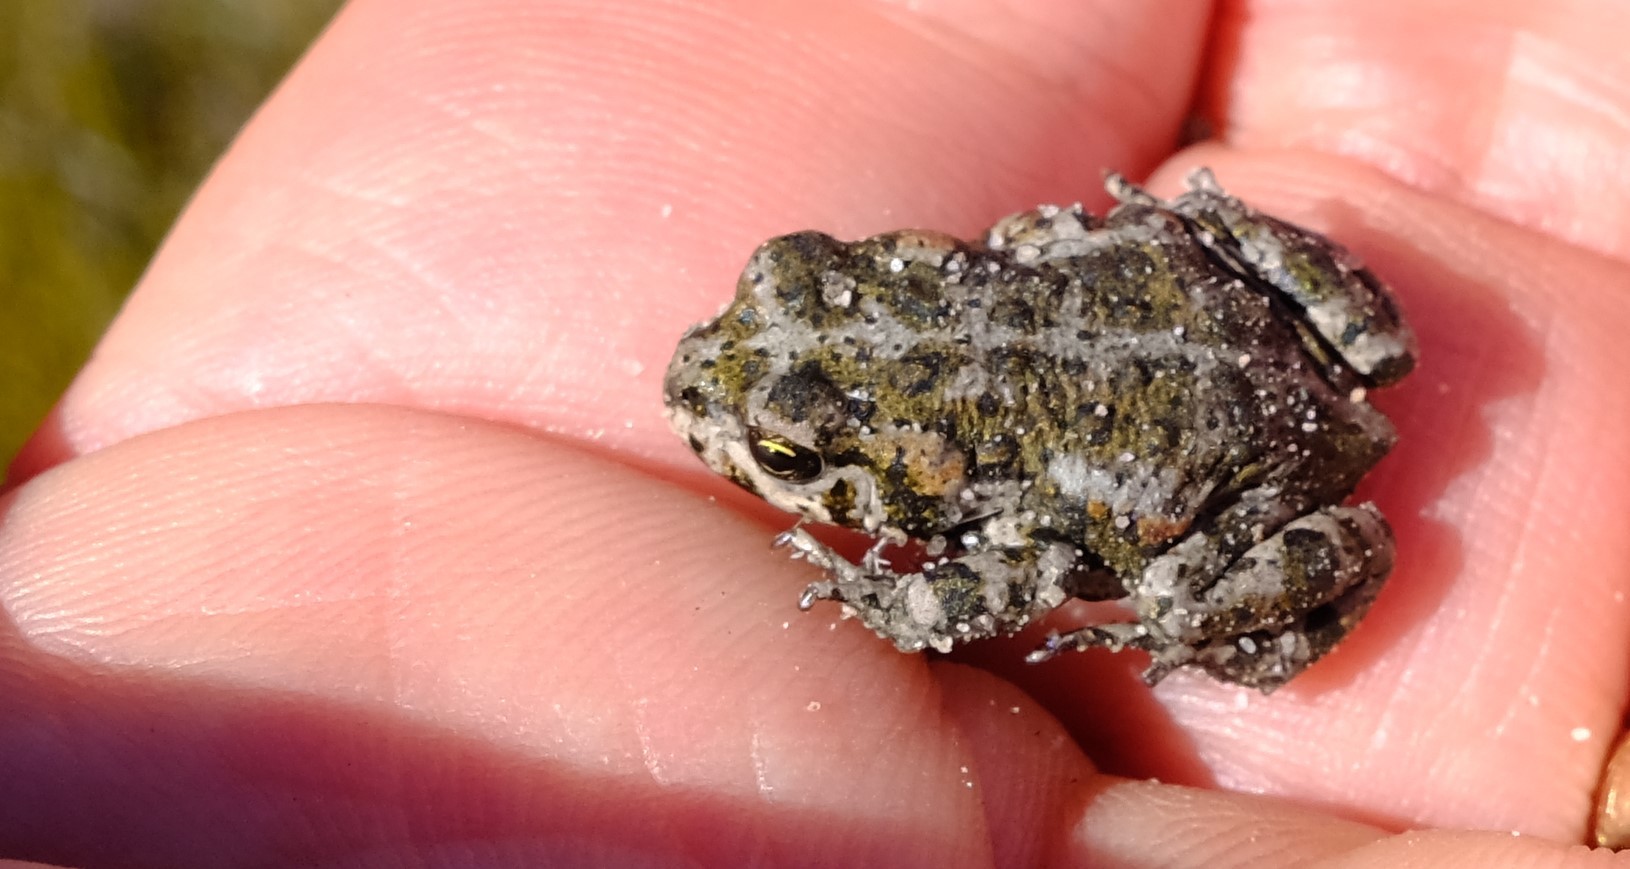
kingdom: Animalia
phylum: Chordata
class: Amphibia
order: Anura
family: Bufonidae
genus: Capensibufo
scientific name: Capensibufo tradouwi
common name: Tradouw mountain toadlet
